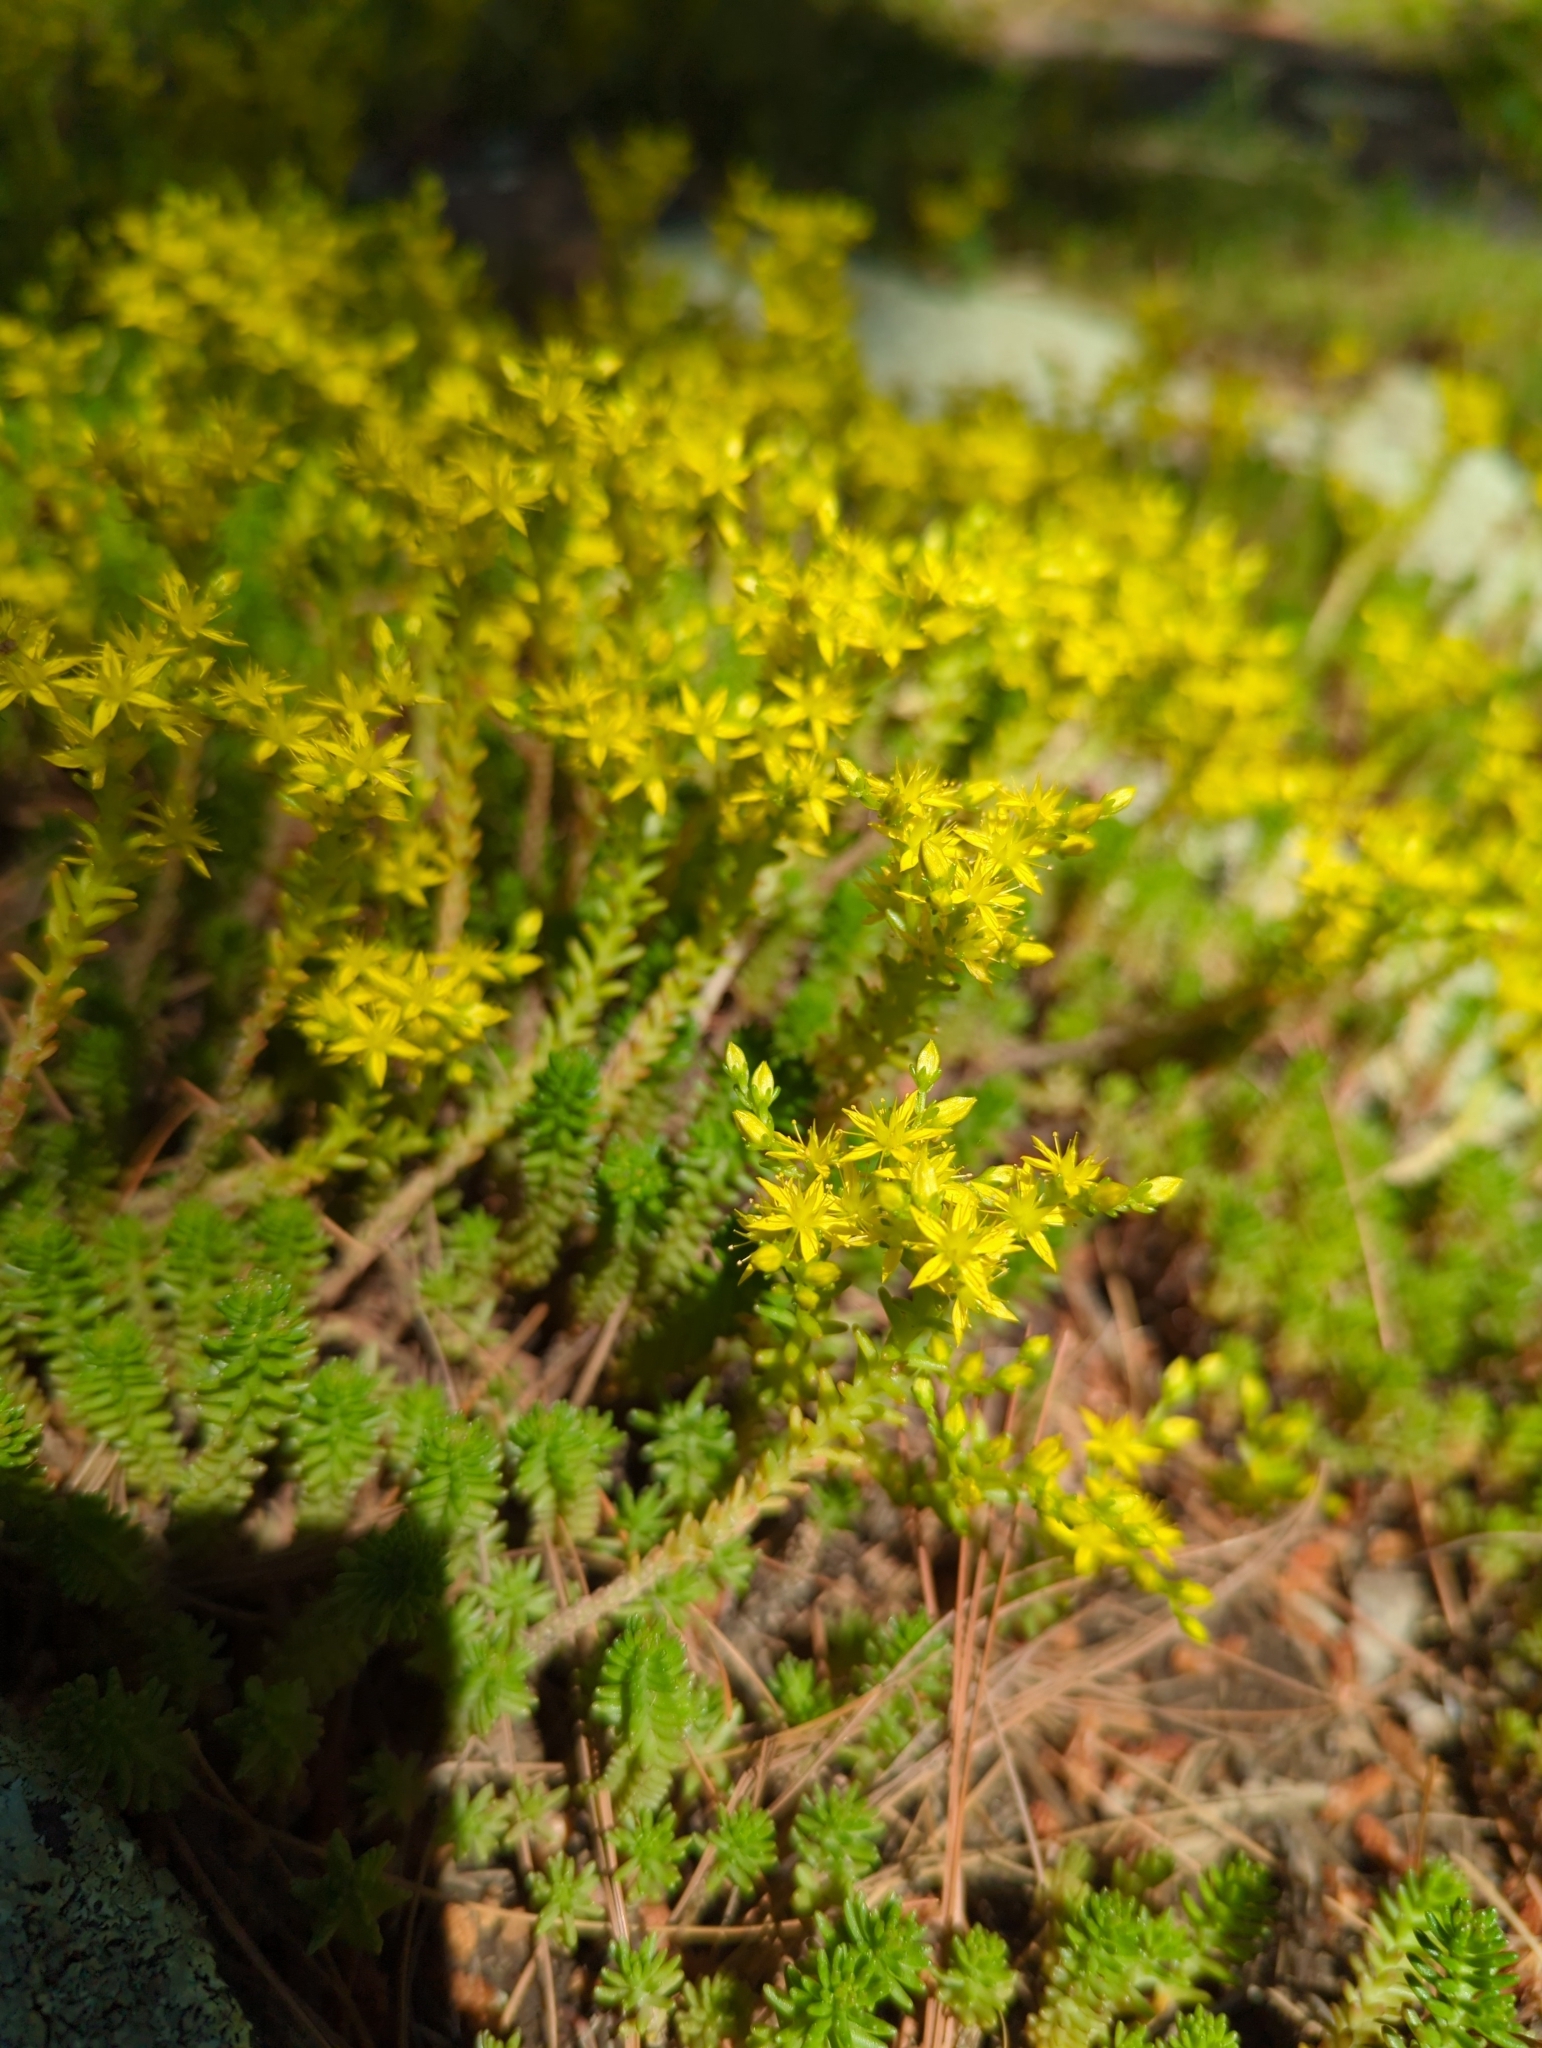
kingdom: Plantae
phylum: Tracheophyta
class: Magnoliopsida
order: Saxifragales
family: Crassulaceae
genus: Sedum
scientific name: Sedum sexangulare
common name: Tasteless stonecrop
